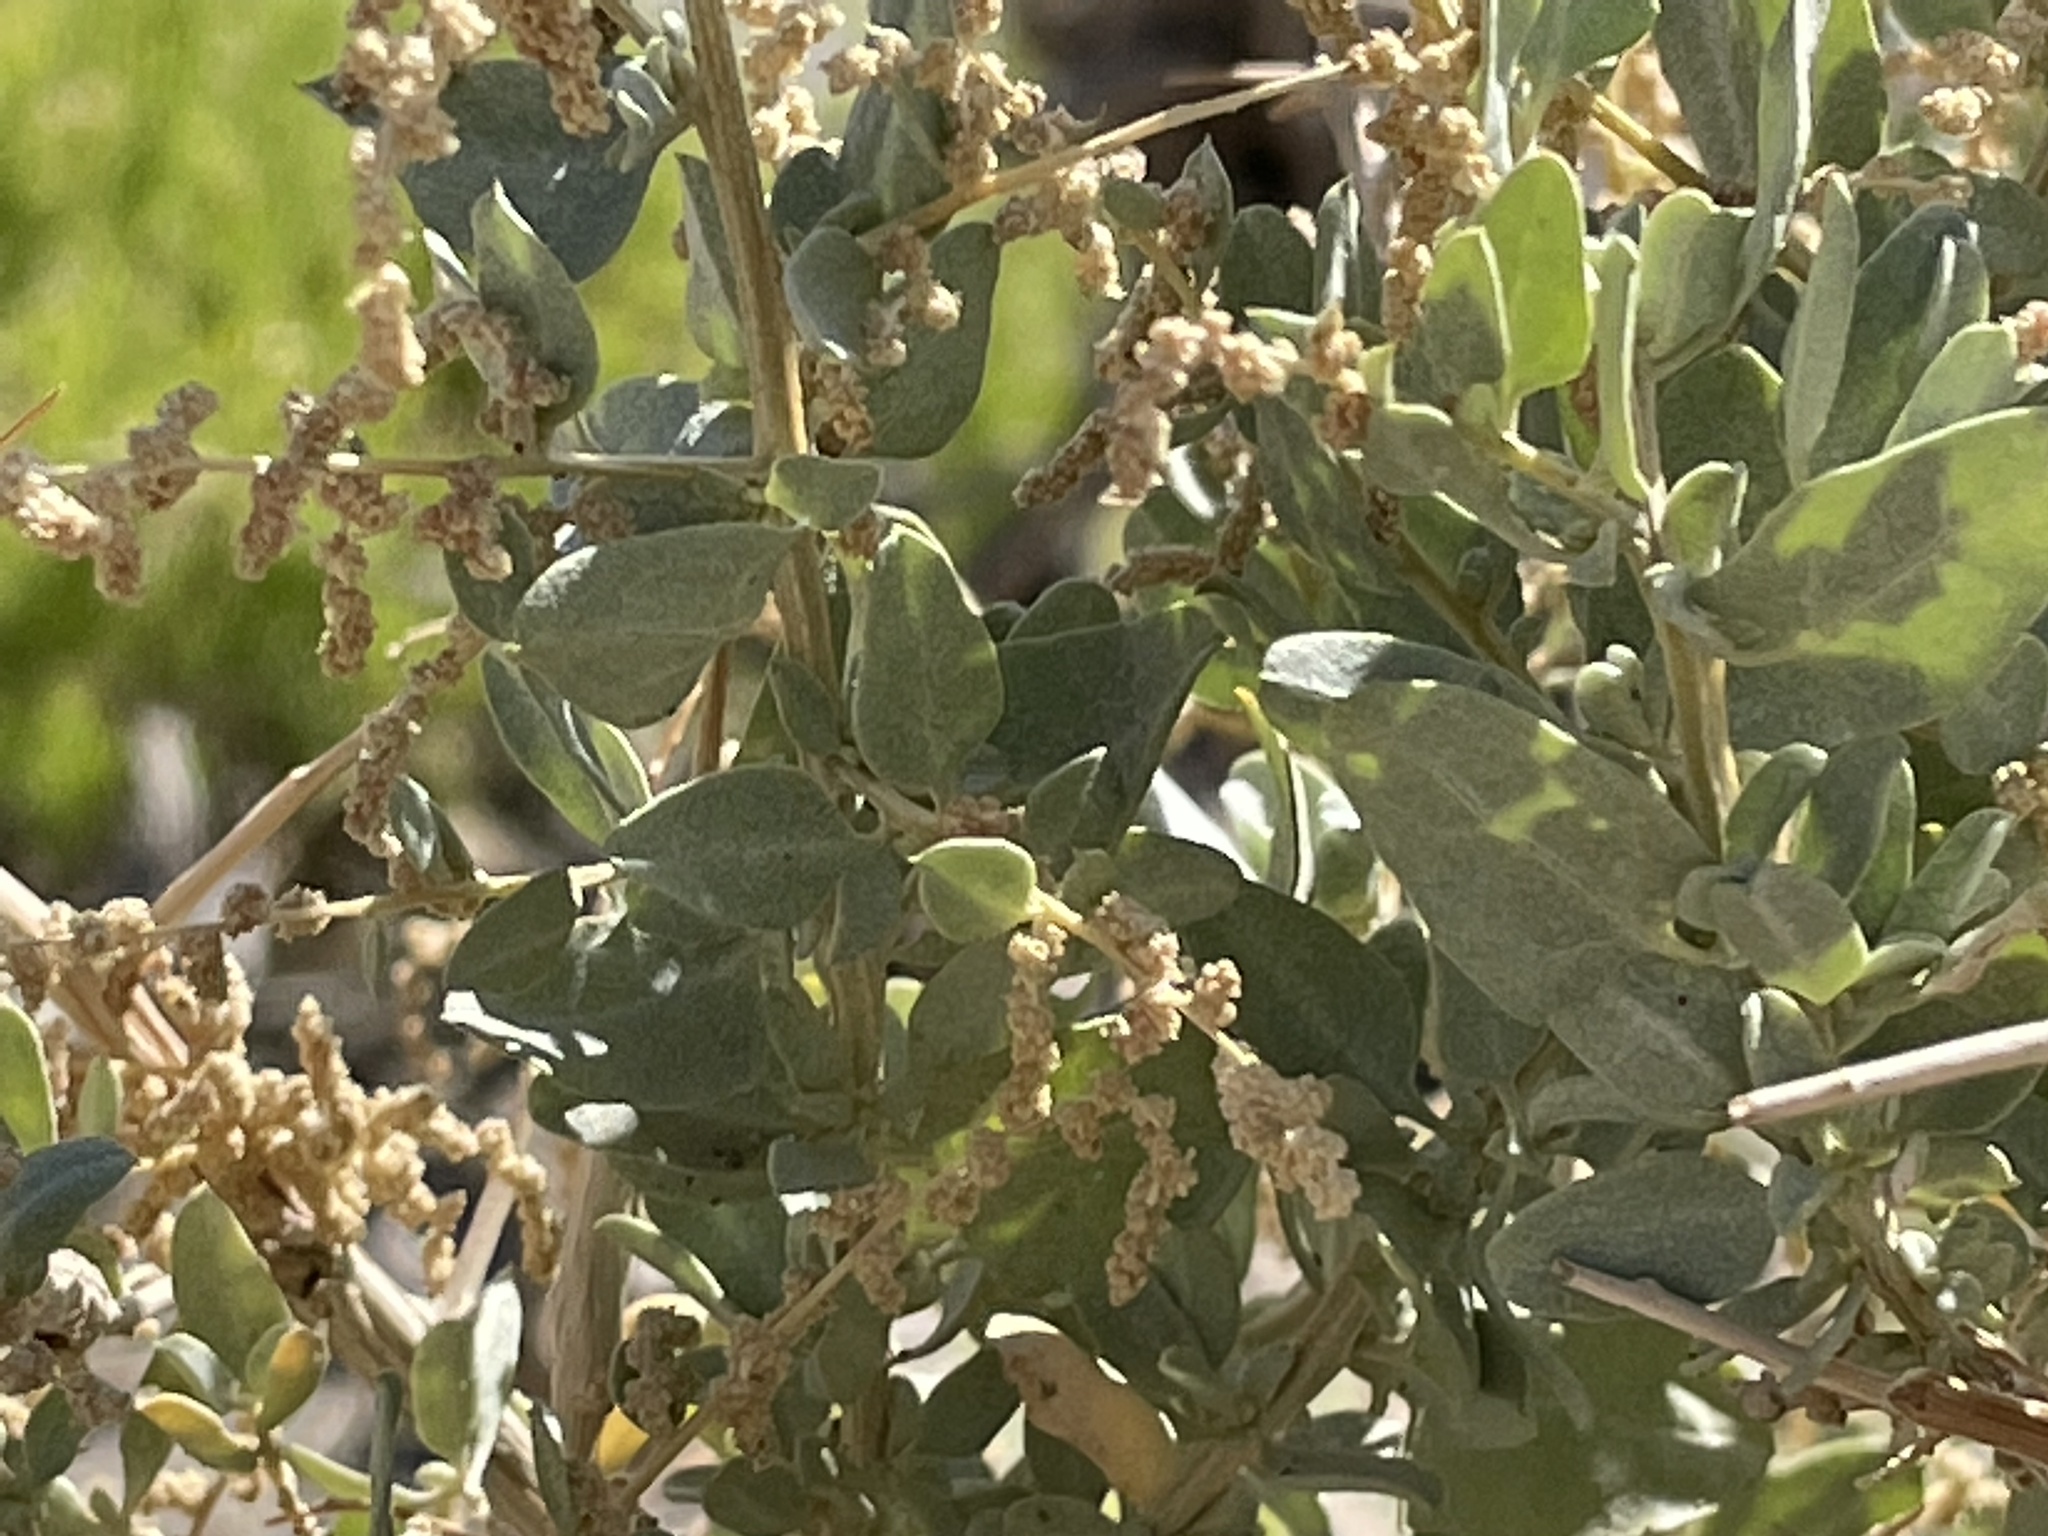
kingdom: Plantae
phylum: Tracheophyta
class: Magnoliopsida
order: Caryophyllales
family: Amaranthaceae
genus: Atriplex
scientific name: Atriplex torreyi
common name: Torrey's saltbush
